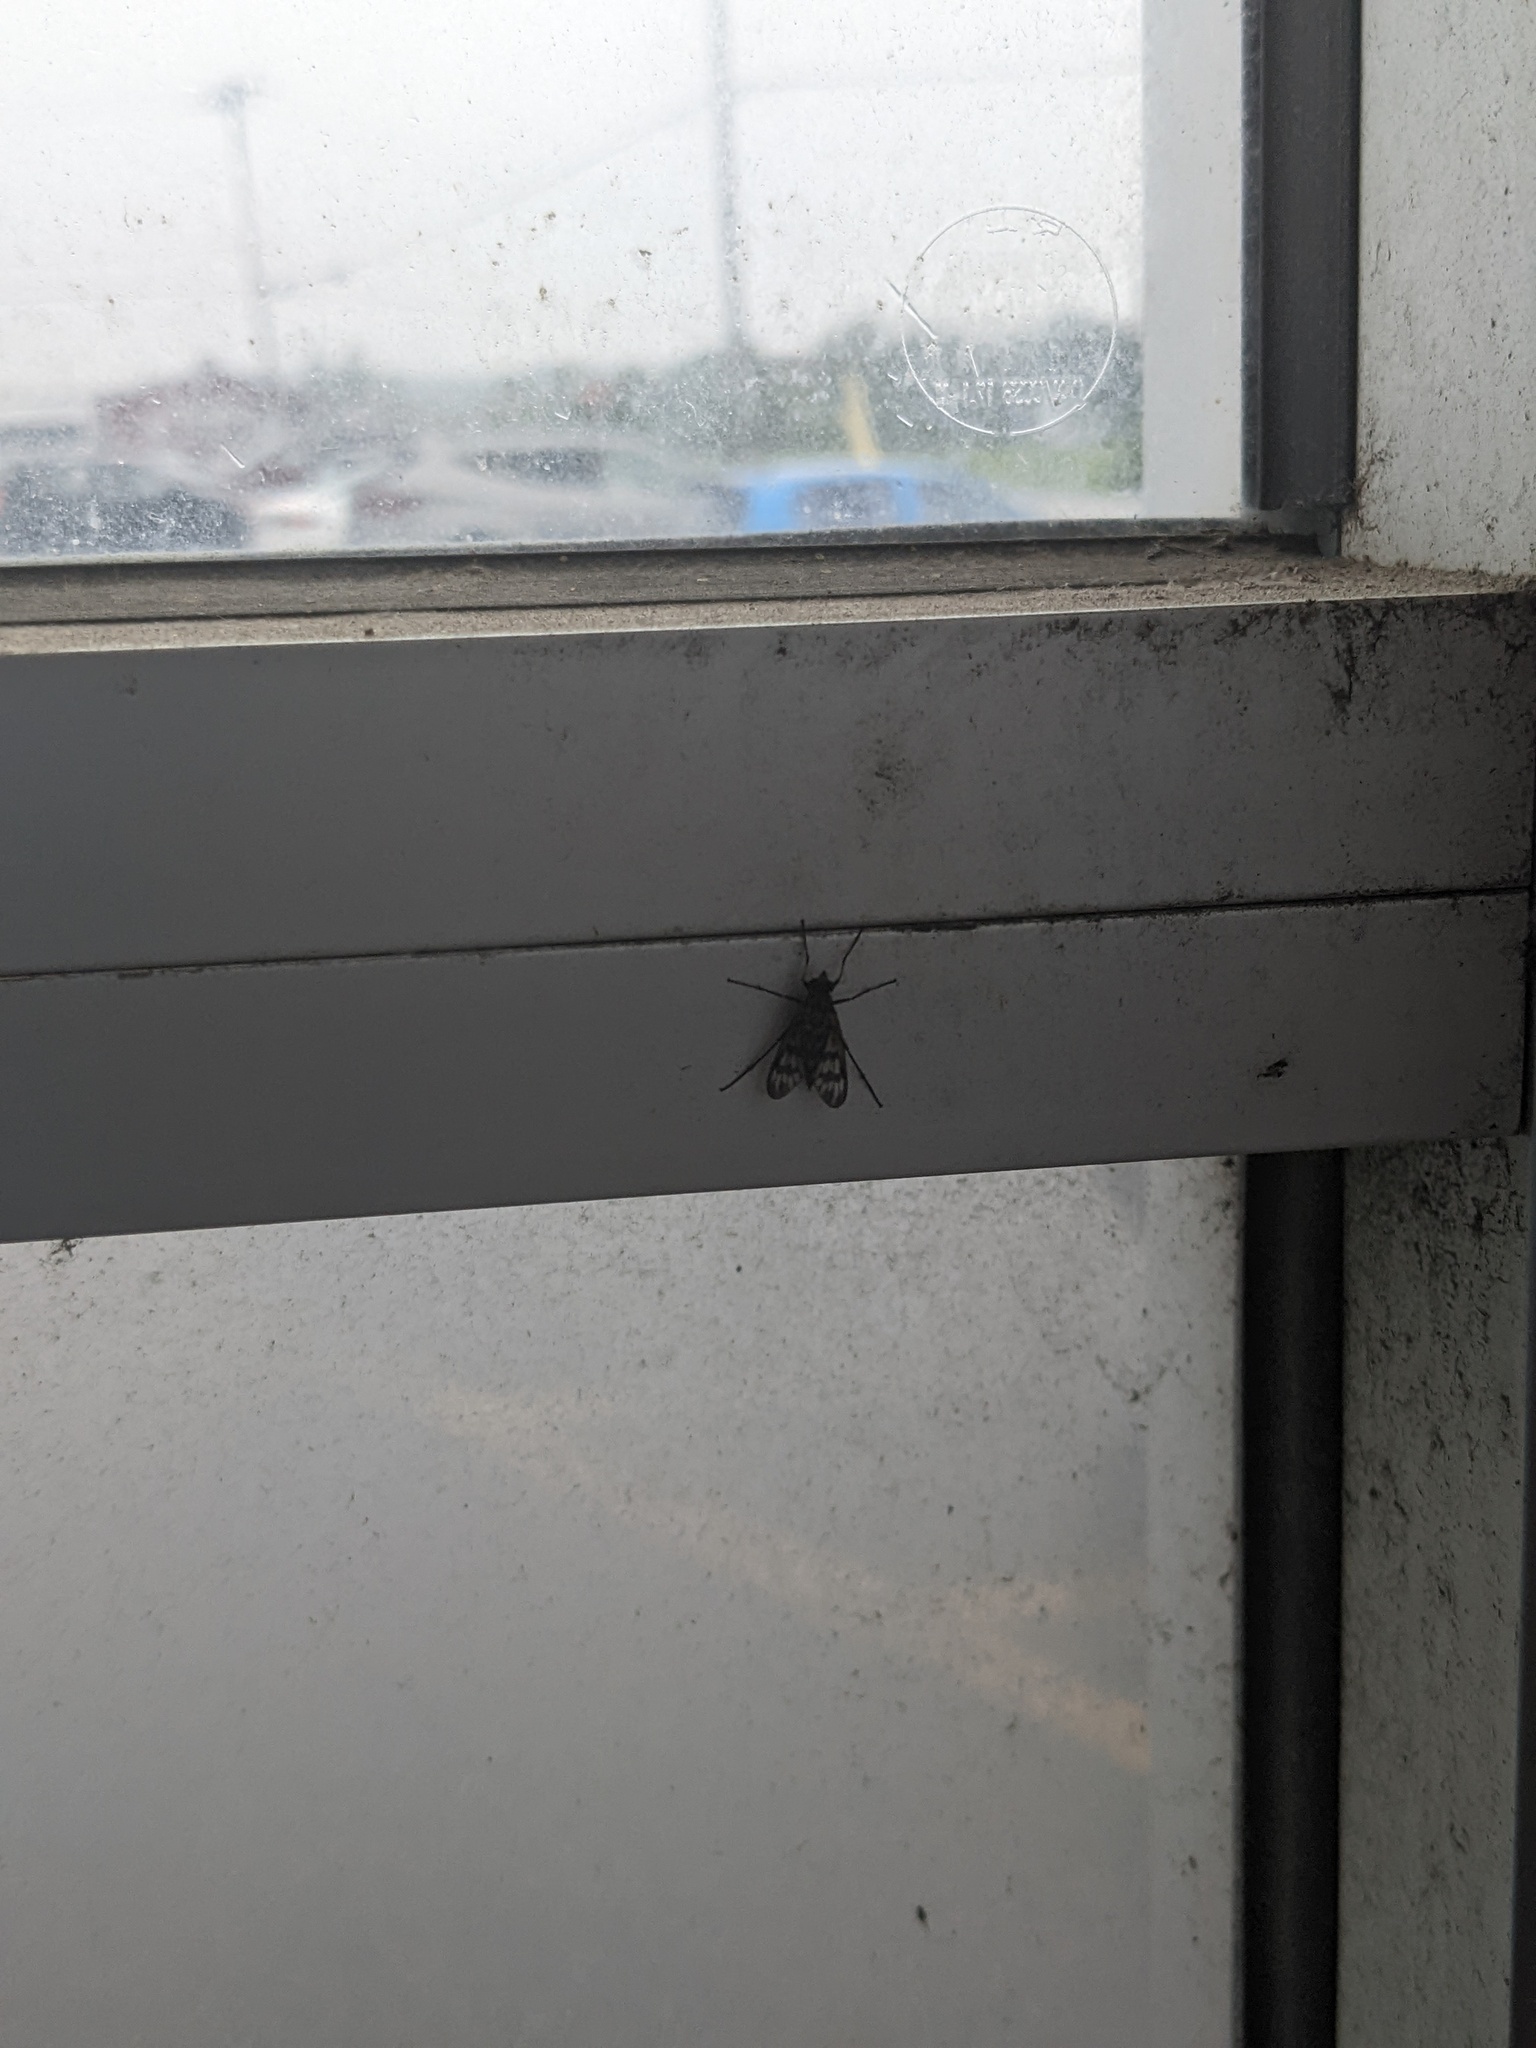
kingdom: Animalia
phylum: Arthropoda
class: Insecta
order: Diptera
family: Rhagionidae
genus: Rhagio
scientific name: Rhagio mystaceus
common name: Common snipe fly
